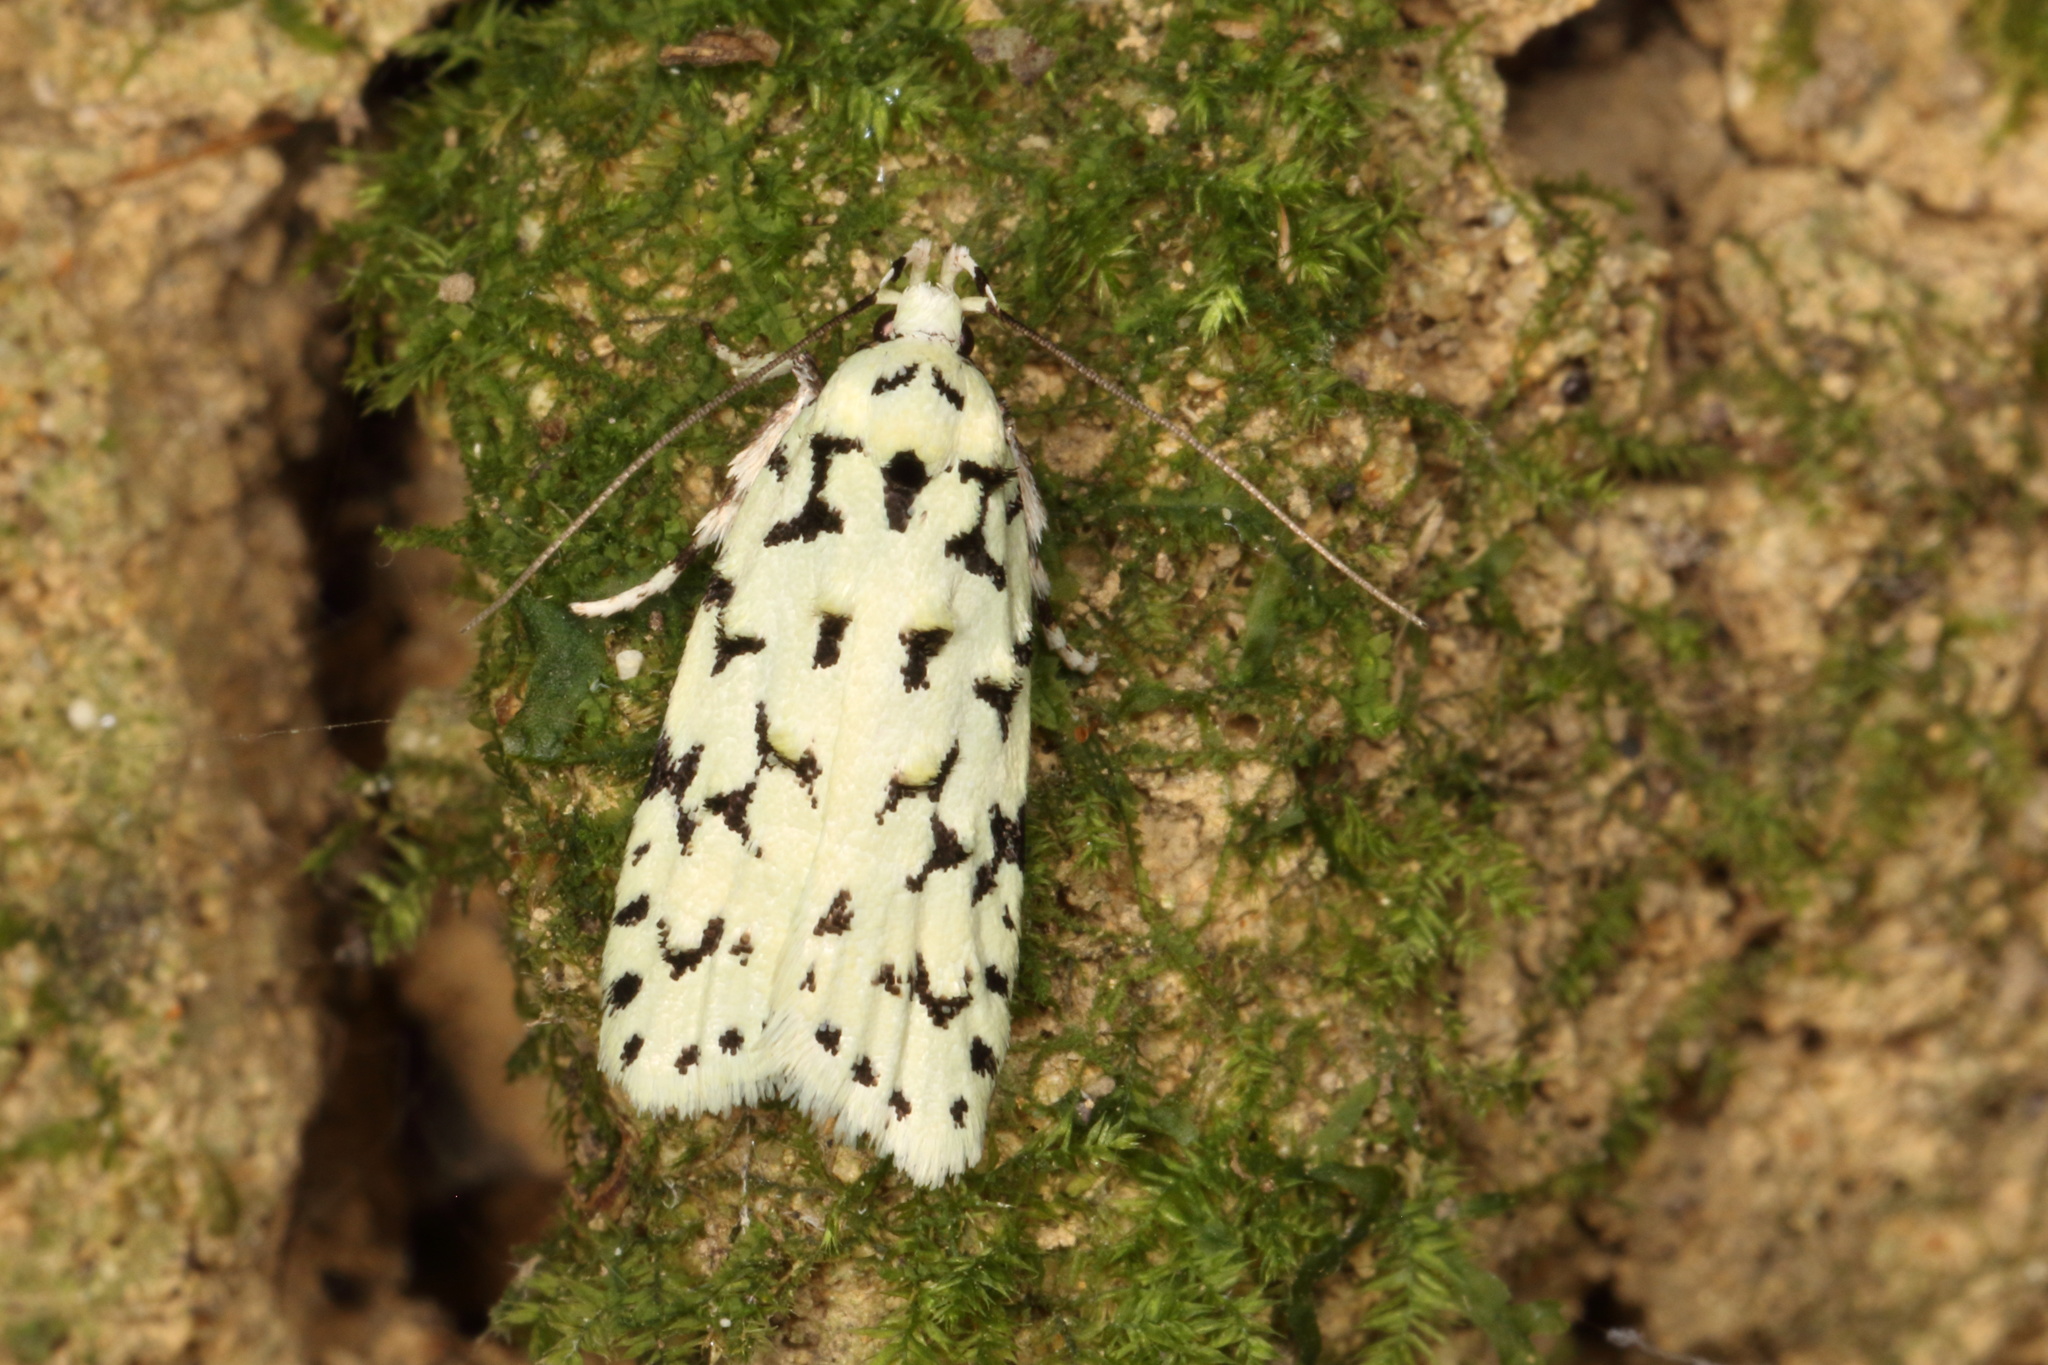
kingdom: Animalia
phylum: Arthropoda
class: Insecta
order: Lepidoptera
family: Oecophoridae
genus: Izatha
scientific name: Izatha huttoni
